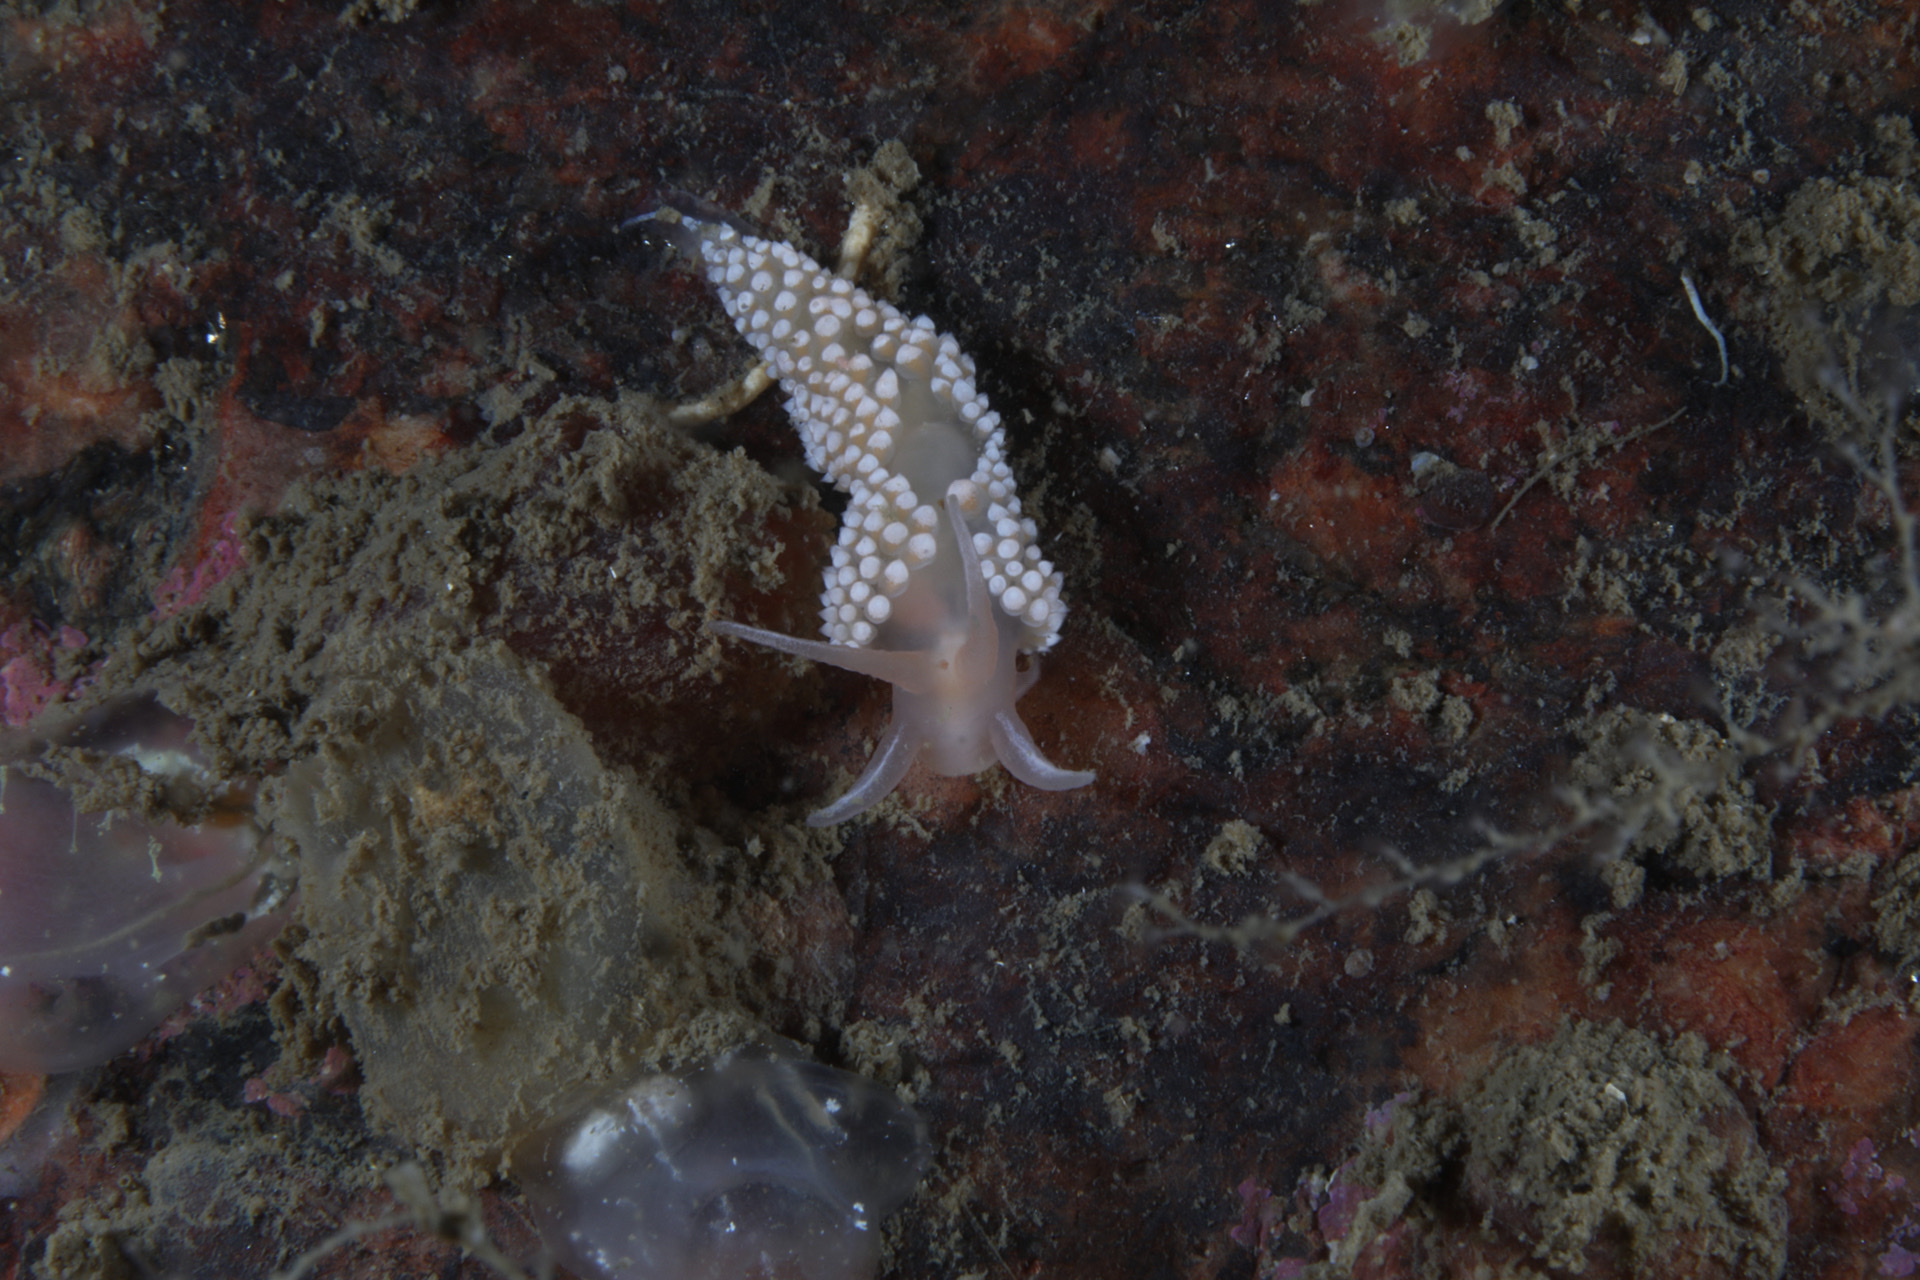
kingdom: Animalia
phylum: Mollusca
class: Gastropoda
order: Nudibranchia
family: Coryphellidae
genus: Coryphella
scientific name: Coryphella verrucosa
